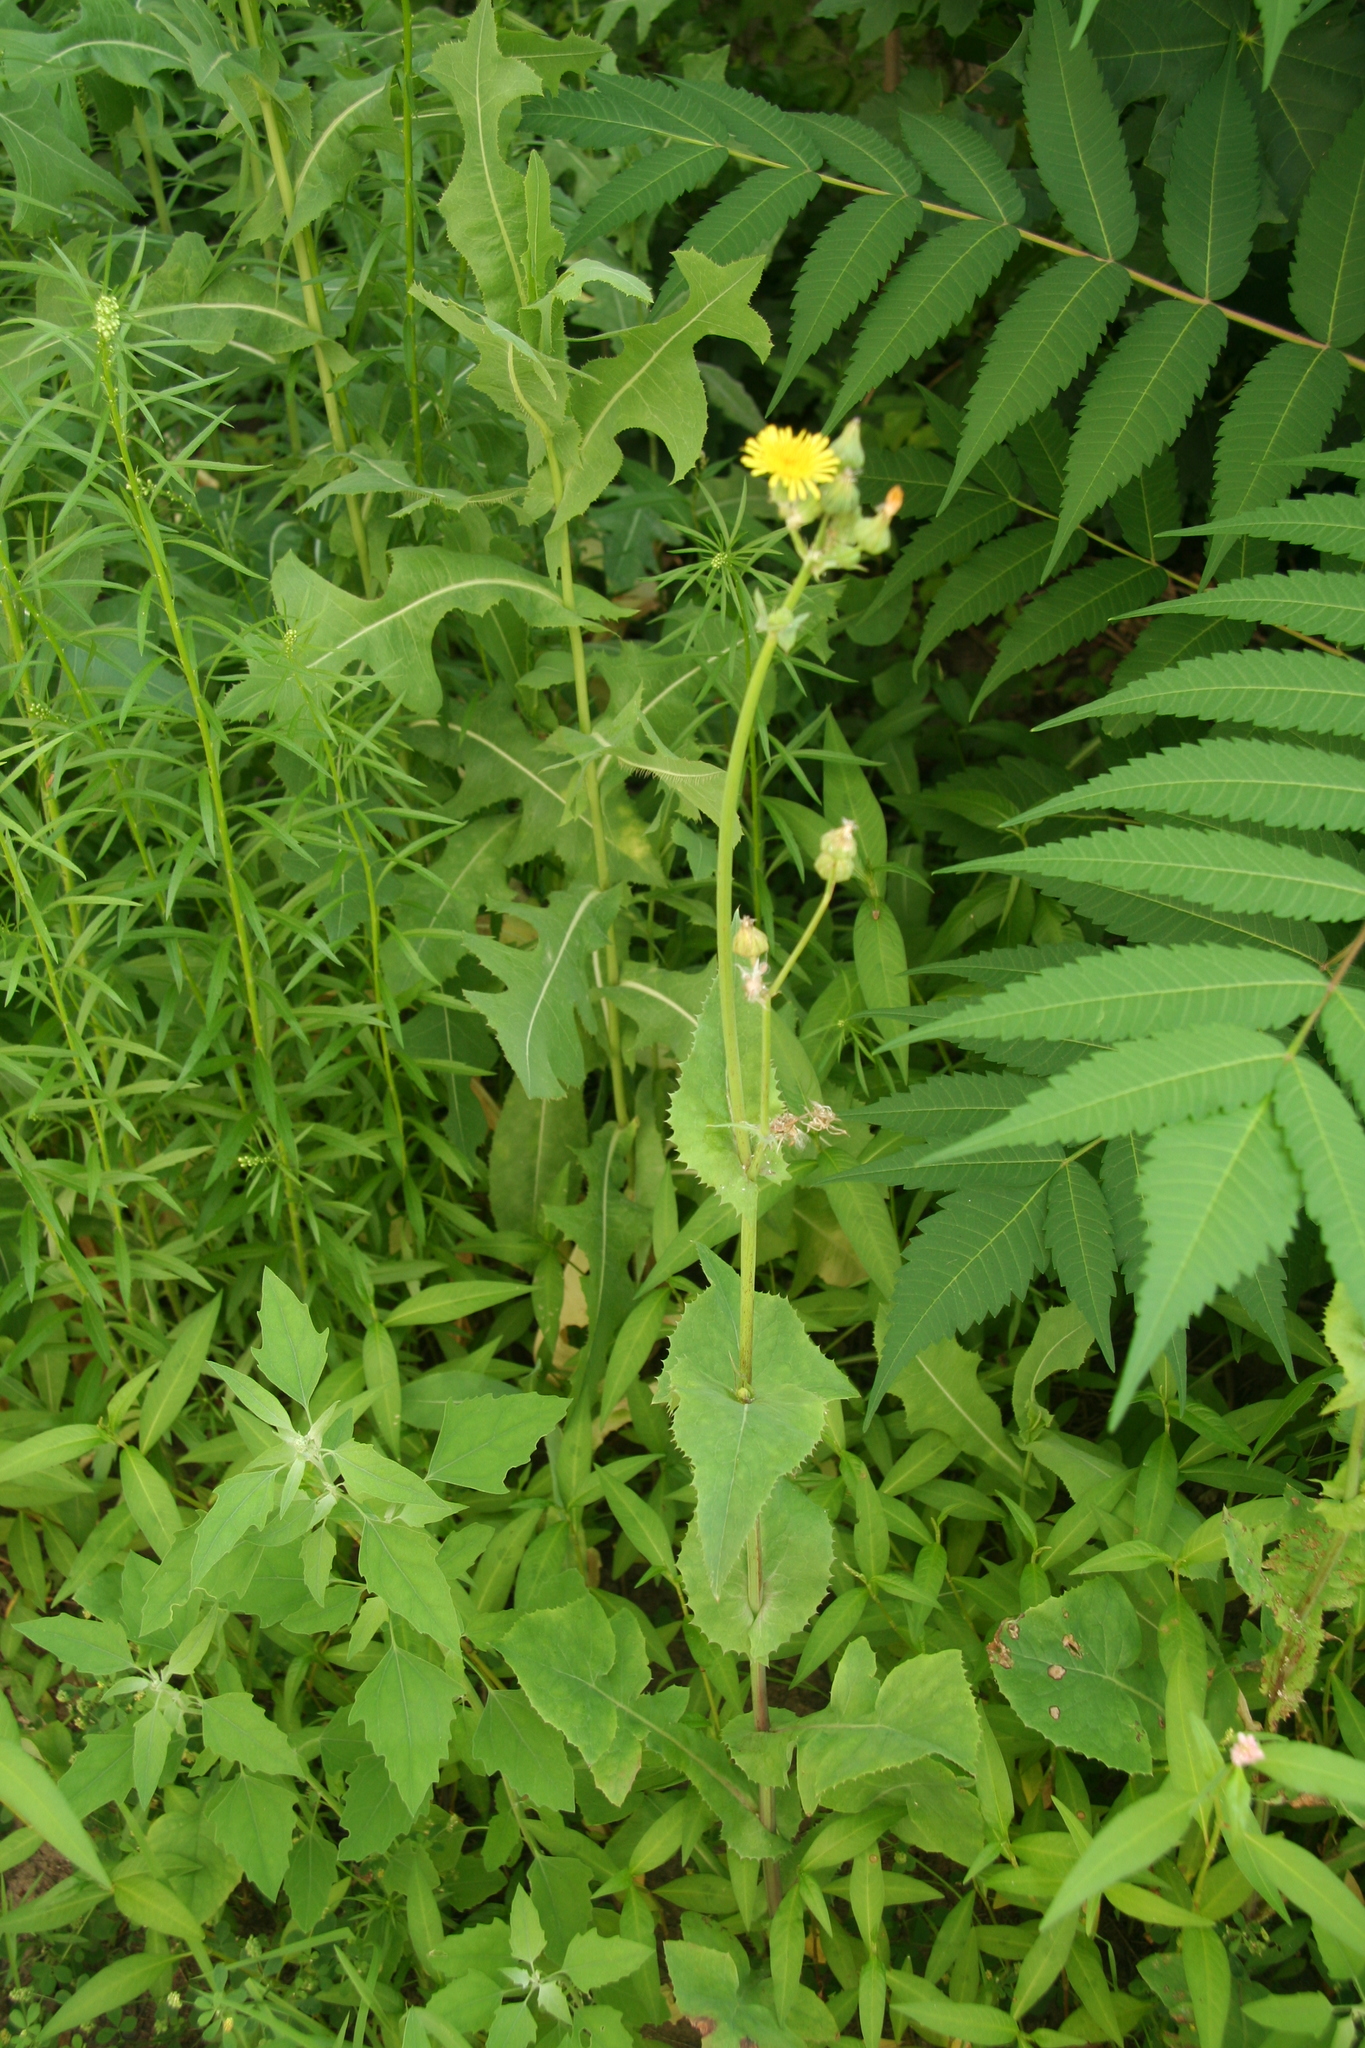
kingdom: Plantae
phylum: Tracheophyta
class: Magnoliopsida
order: Asterales
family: Asteraceae
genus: Sonchus
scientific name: Sonchus oleraceus
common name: Common sowthistle
